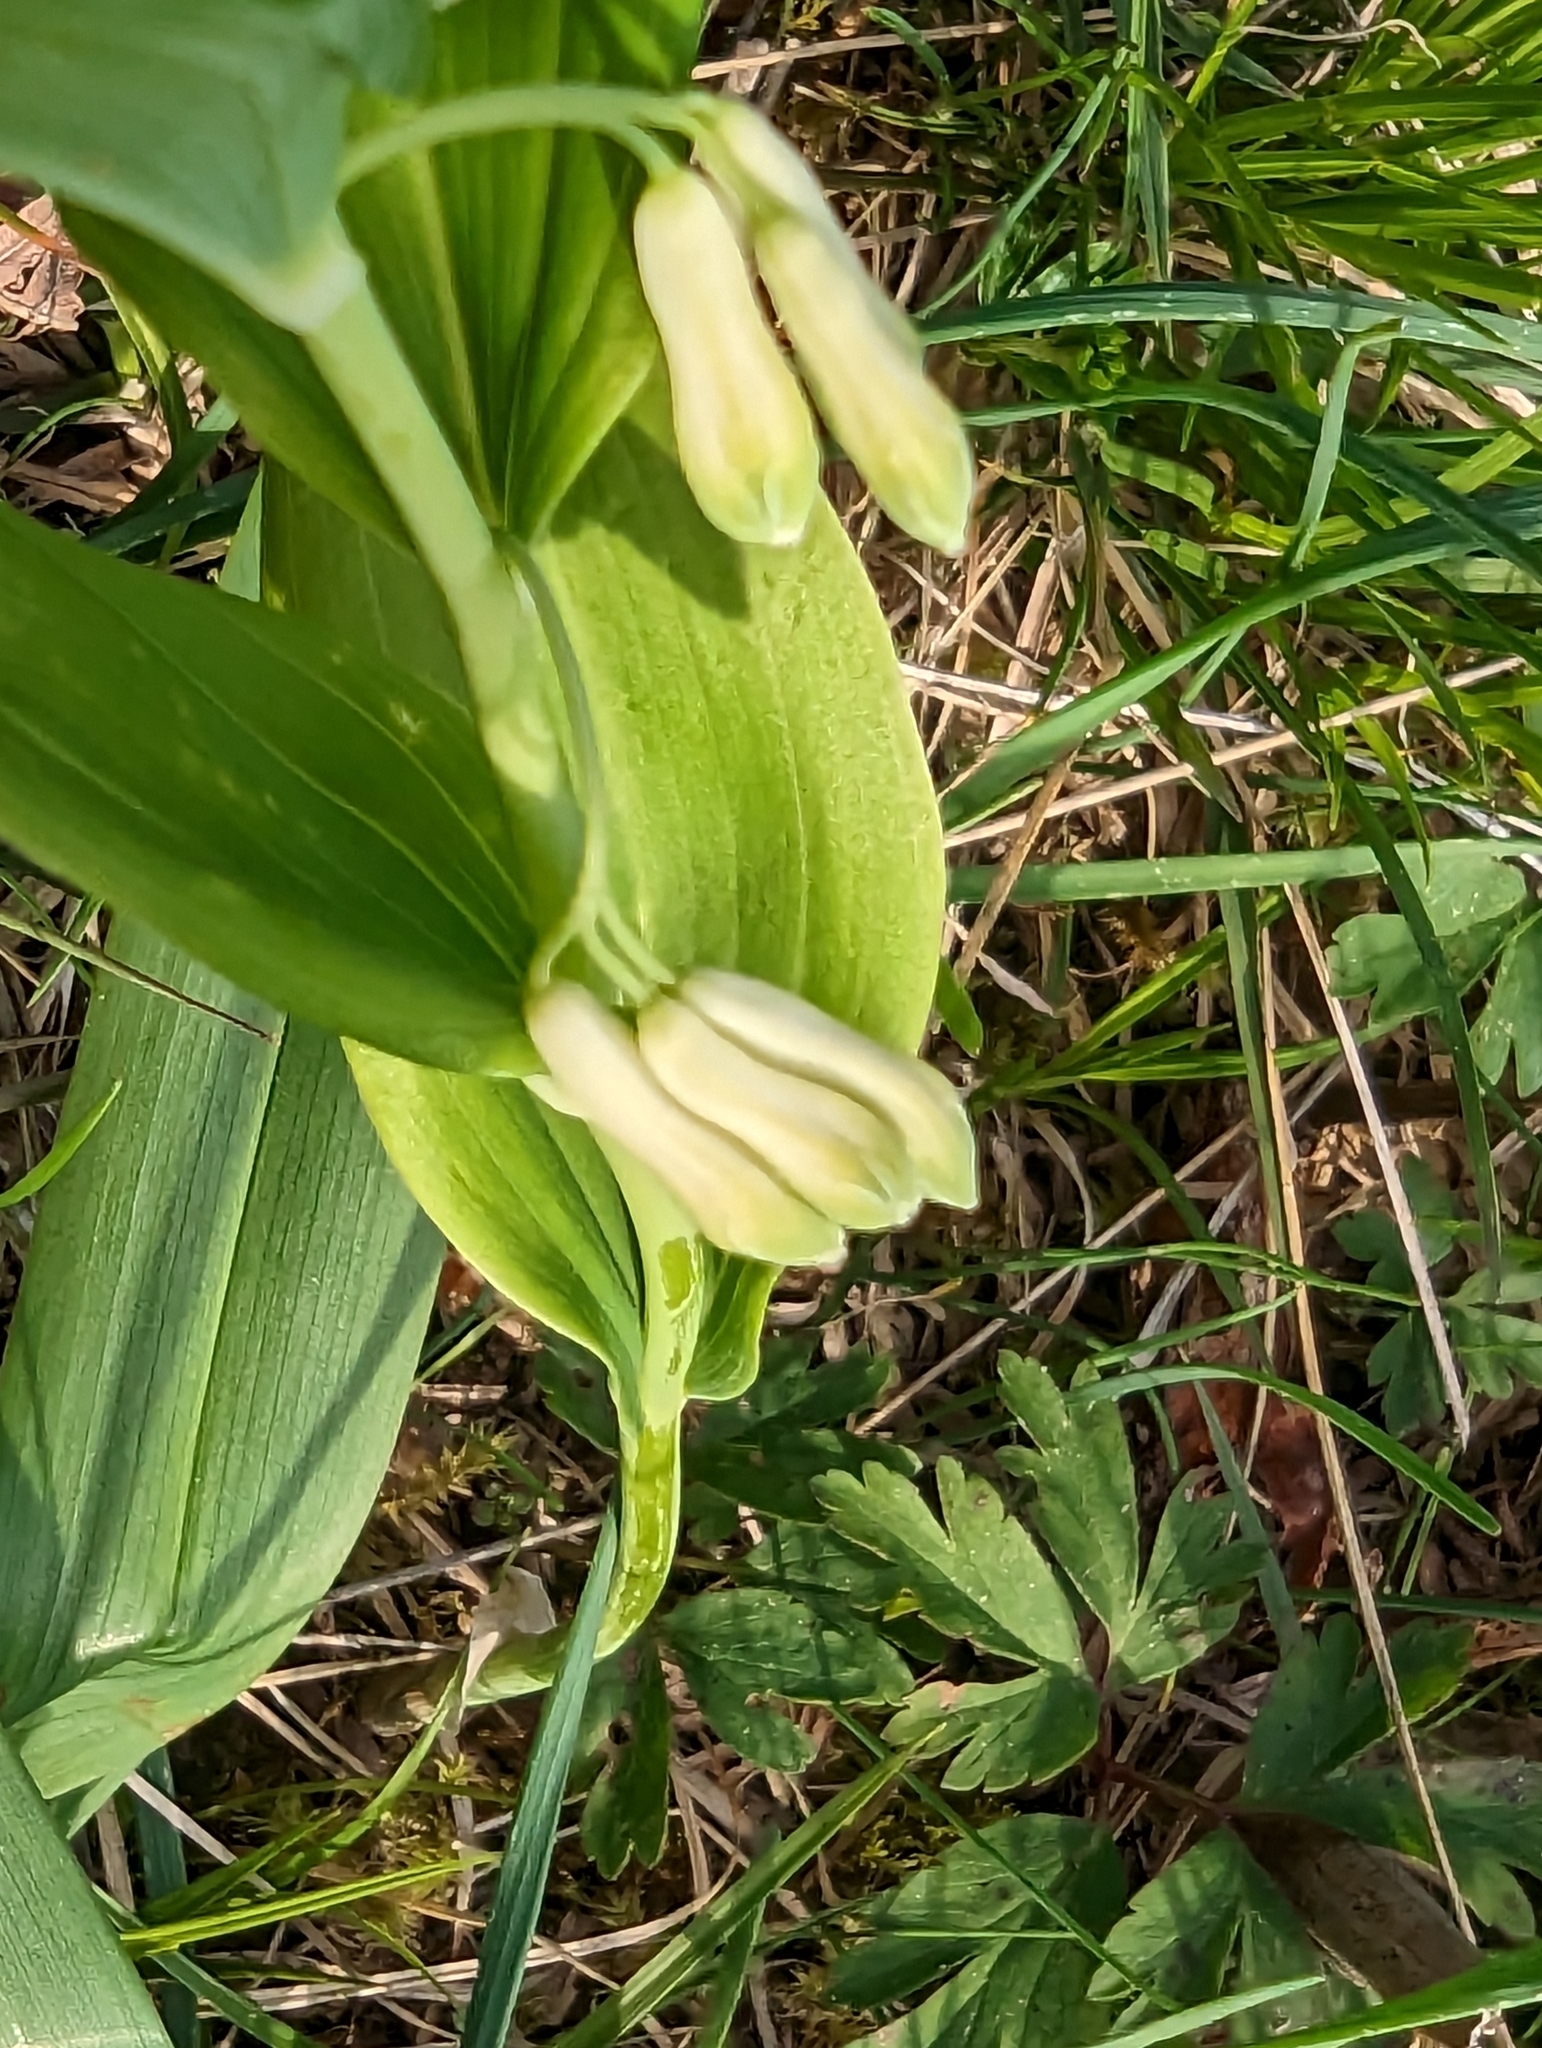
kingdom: Plantae
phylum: Tracheophyta
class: Liliopsida
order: Asparagales
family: Asparagaceae
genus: Polygonatum
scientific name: Polygonatum multiflorum
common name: Solomon's-seal
